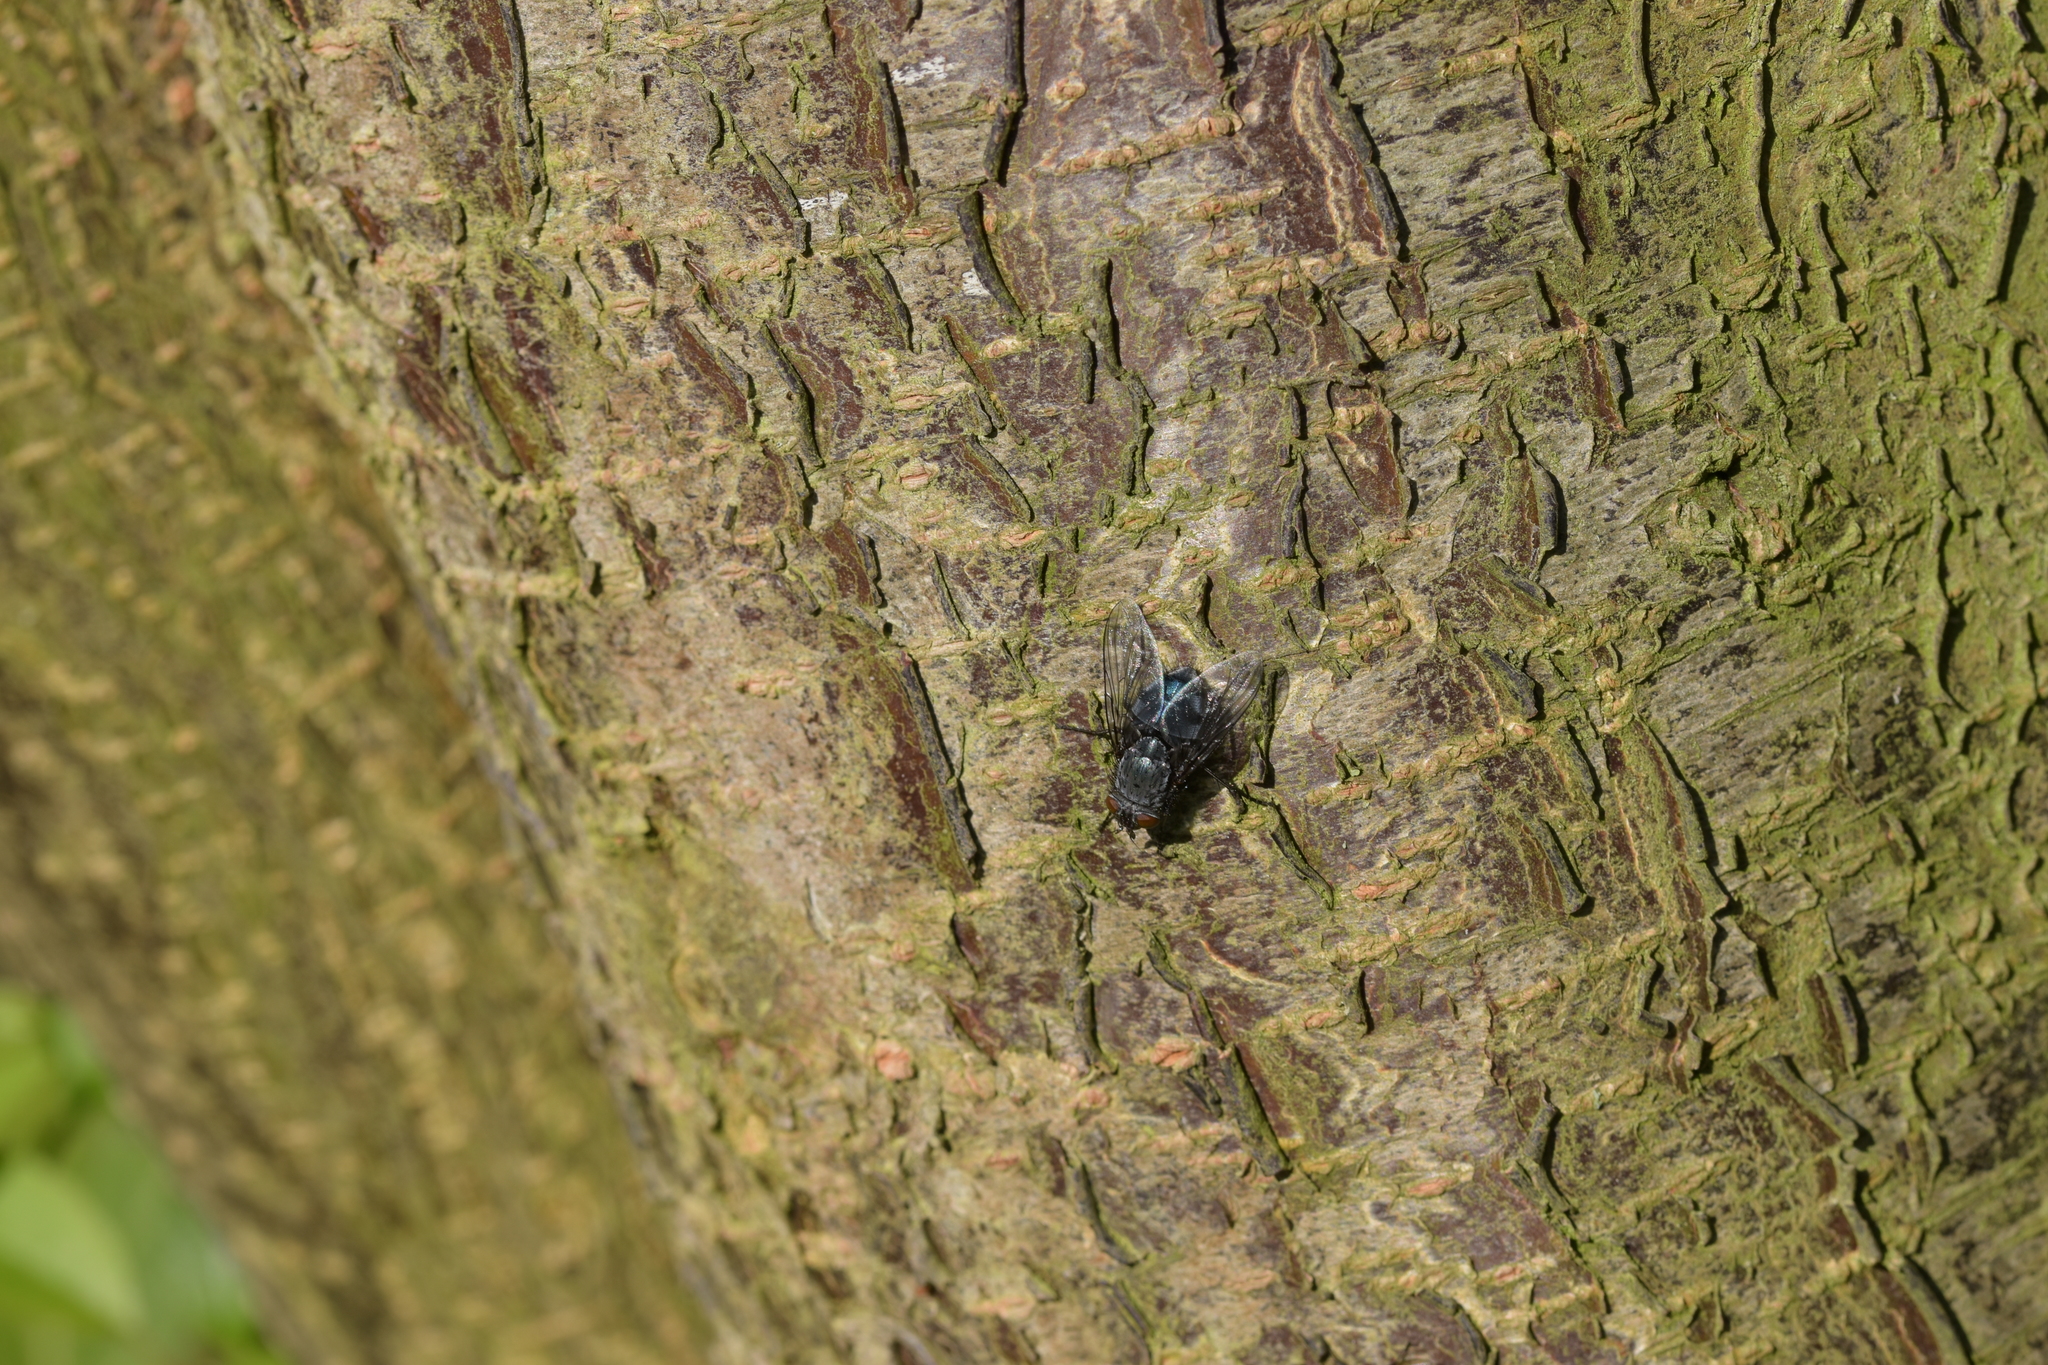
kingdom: Animalia
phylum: Arthropoda
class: Insecta
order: Diptera
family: Calliphoridae
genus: Calliphora
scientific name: Calliphora vicina
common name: Common blow flie
